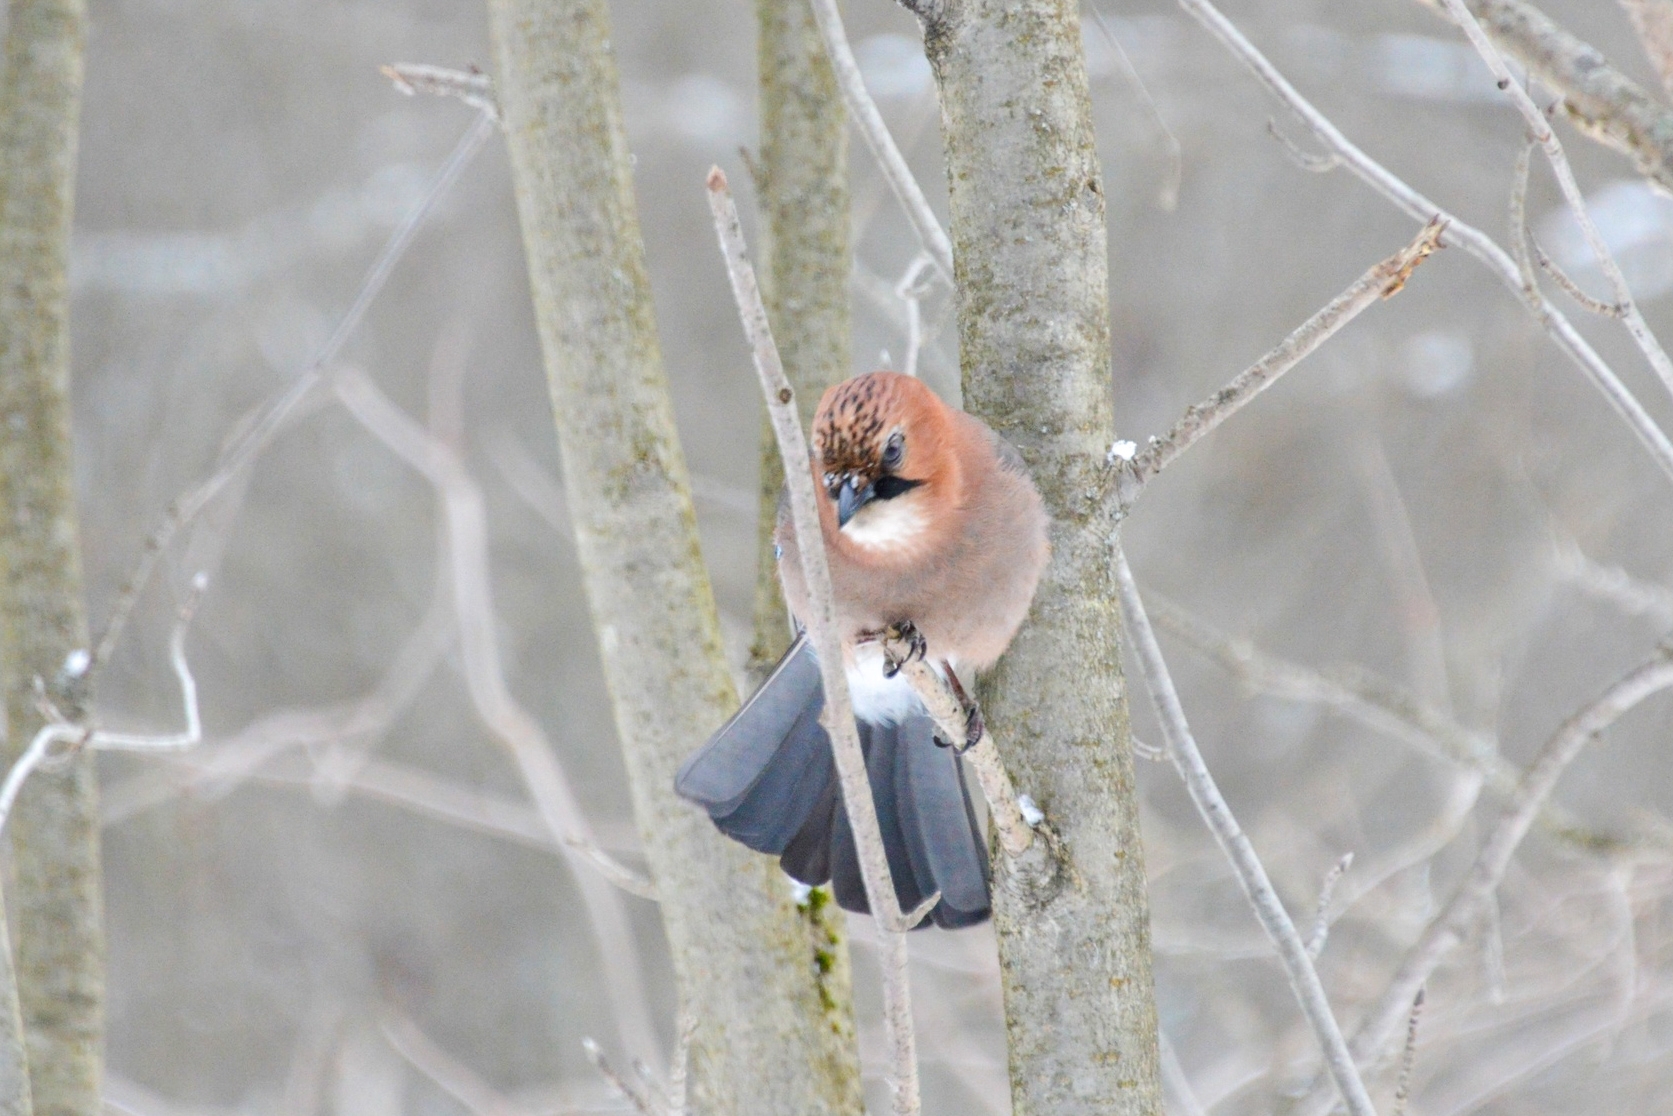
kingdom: Animalia
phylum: Chordata
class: Aves
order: Passeriformes
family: Corvidae
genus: Garrulus
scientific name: Garrulus glandarius
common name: Eurasian jay
